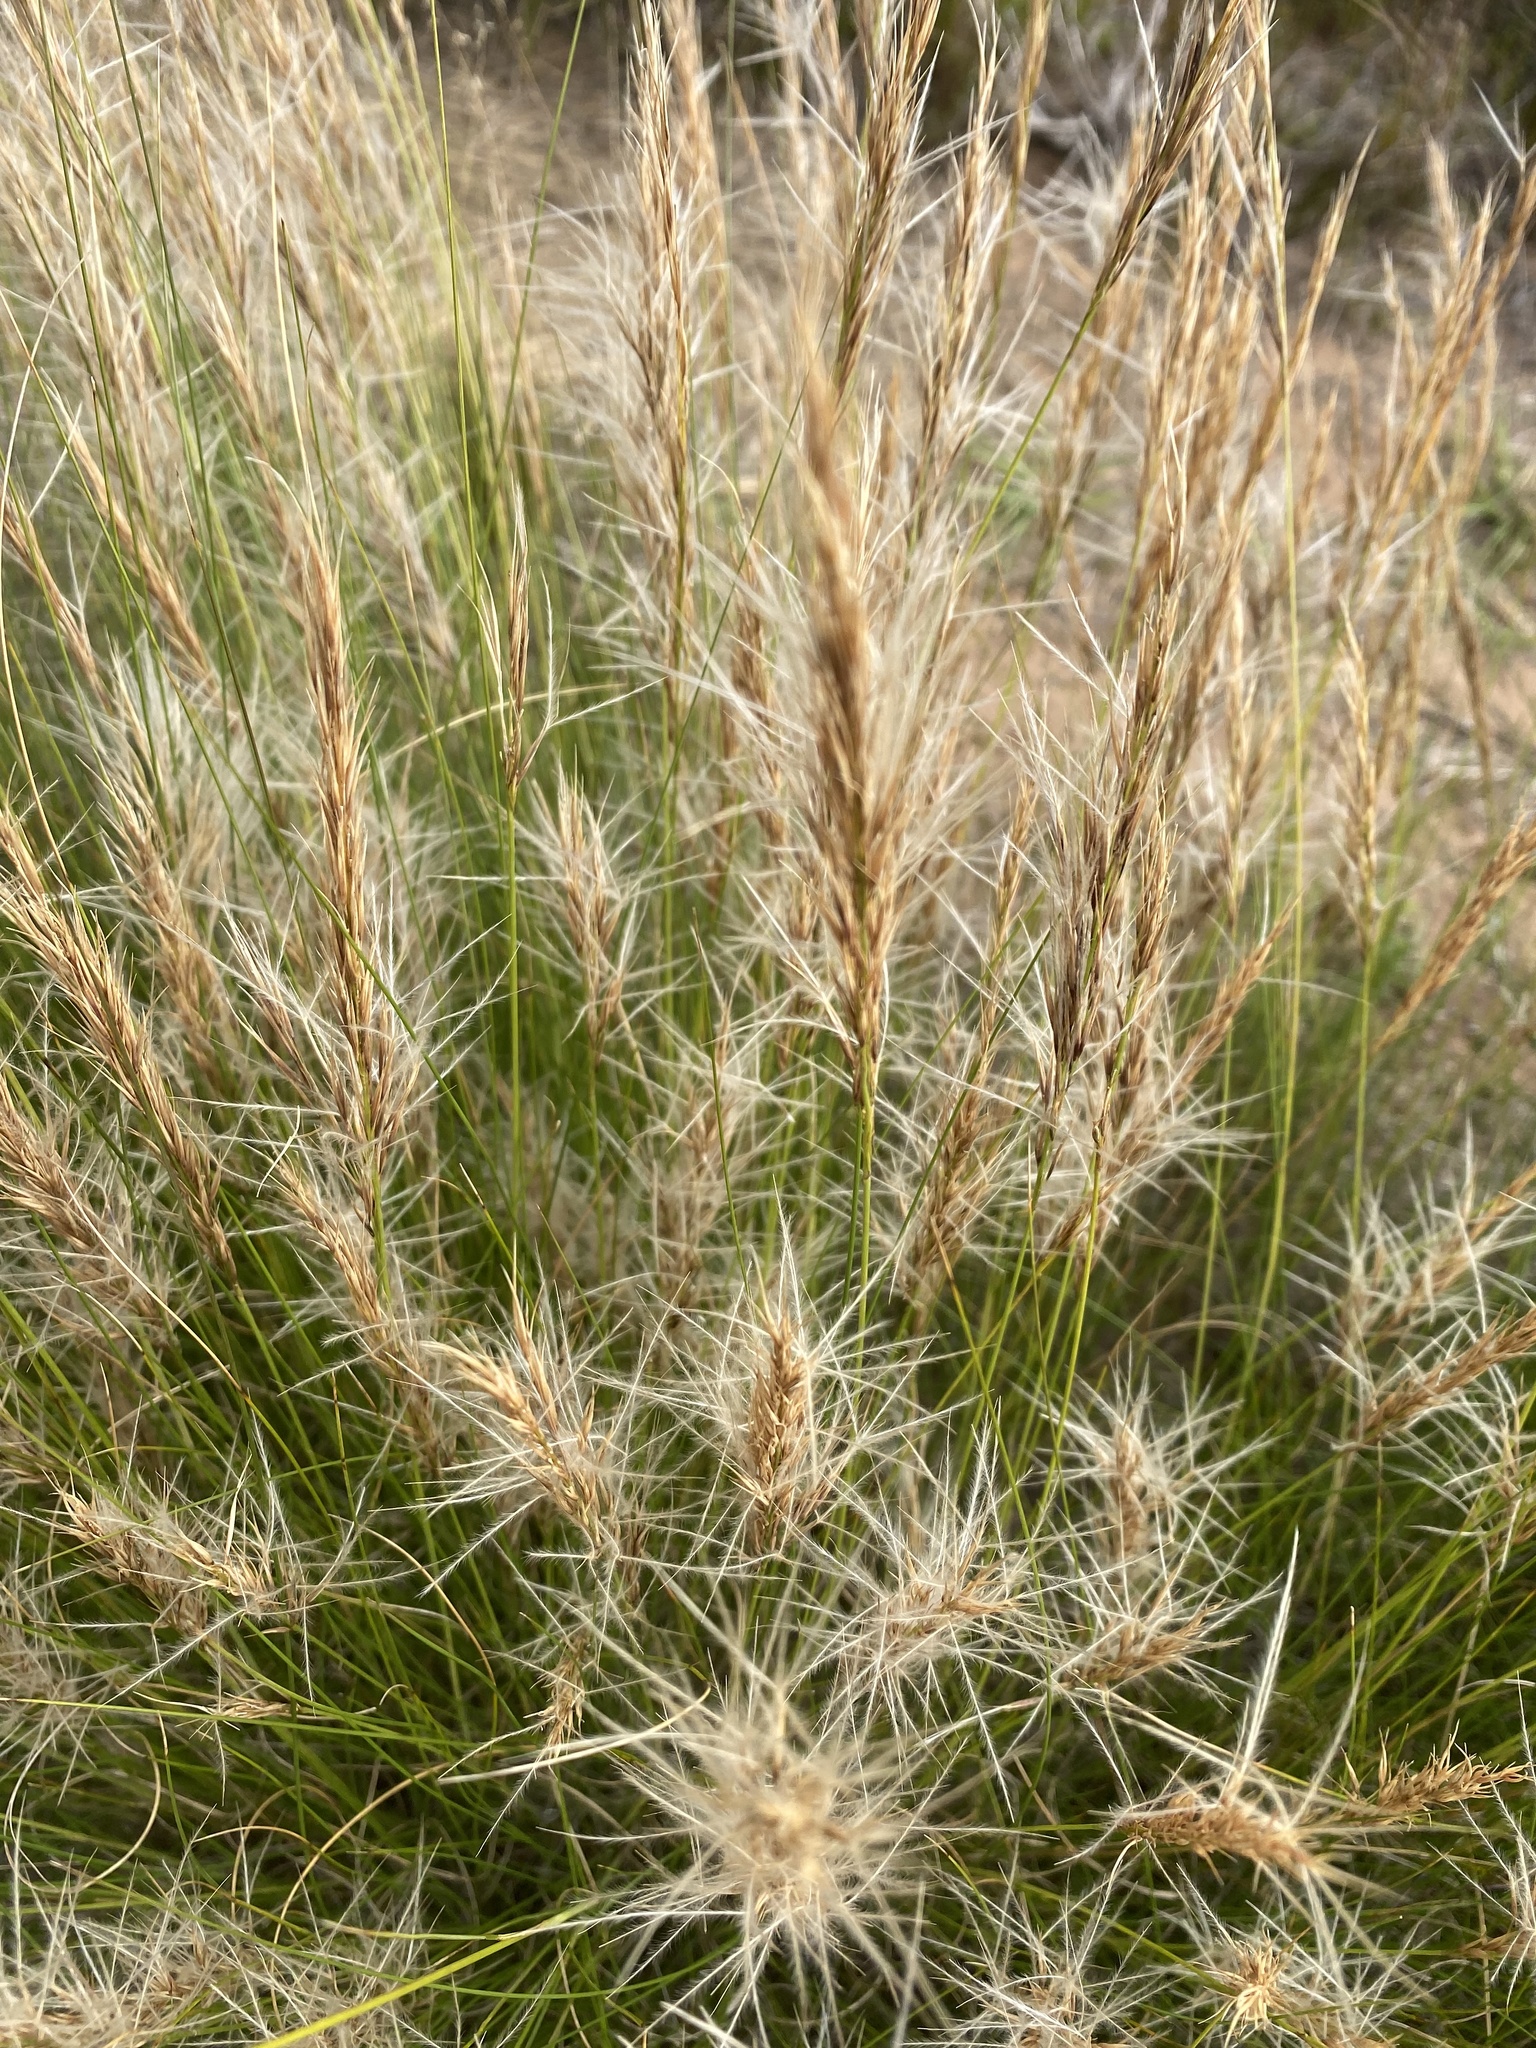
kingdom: Plantae
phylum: Tracheophyta
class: Liliopsida
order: Poales
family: Poaceae
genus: Stipagrostis
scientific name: Stipagrostis zeyheri
